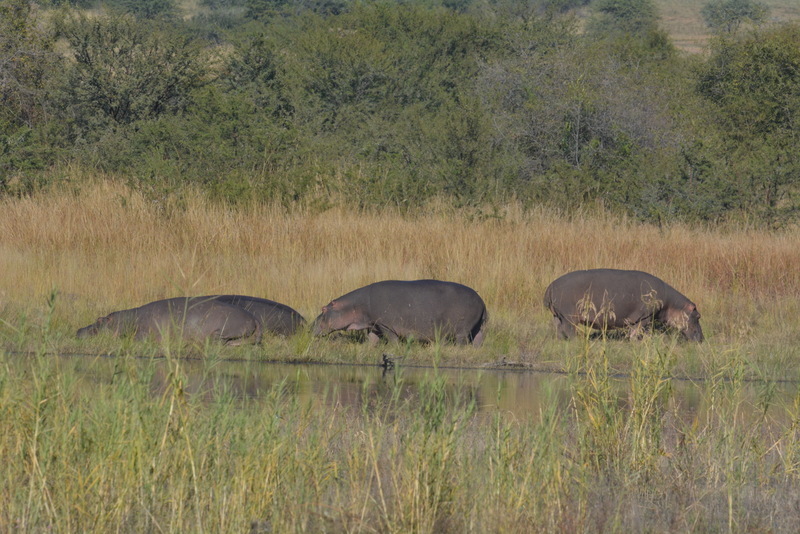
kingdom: Animalia
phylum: Chordata
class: Mammalia
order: Artiodactyla
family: Hippopotamidae
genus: Hippopotamus
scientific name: Hippopotamus amphibius
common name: Common hippopotamus
